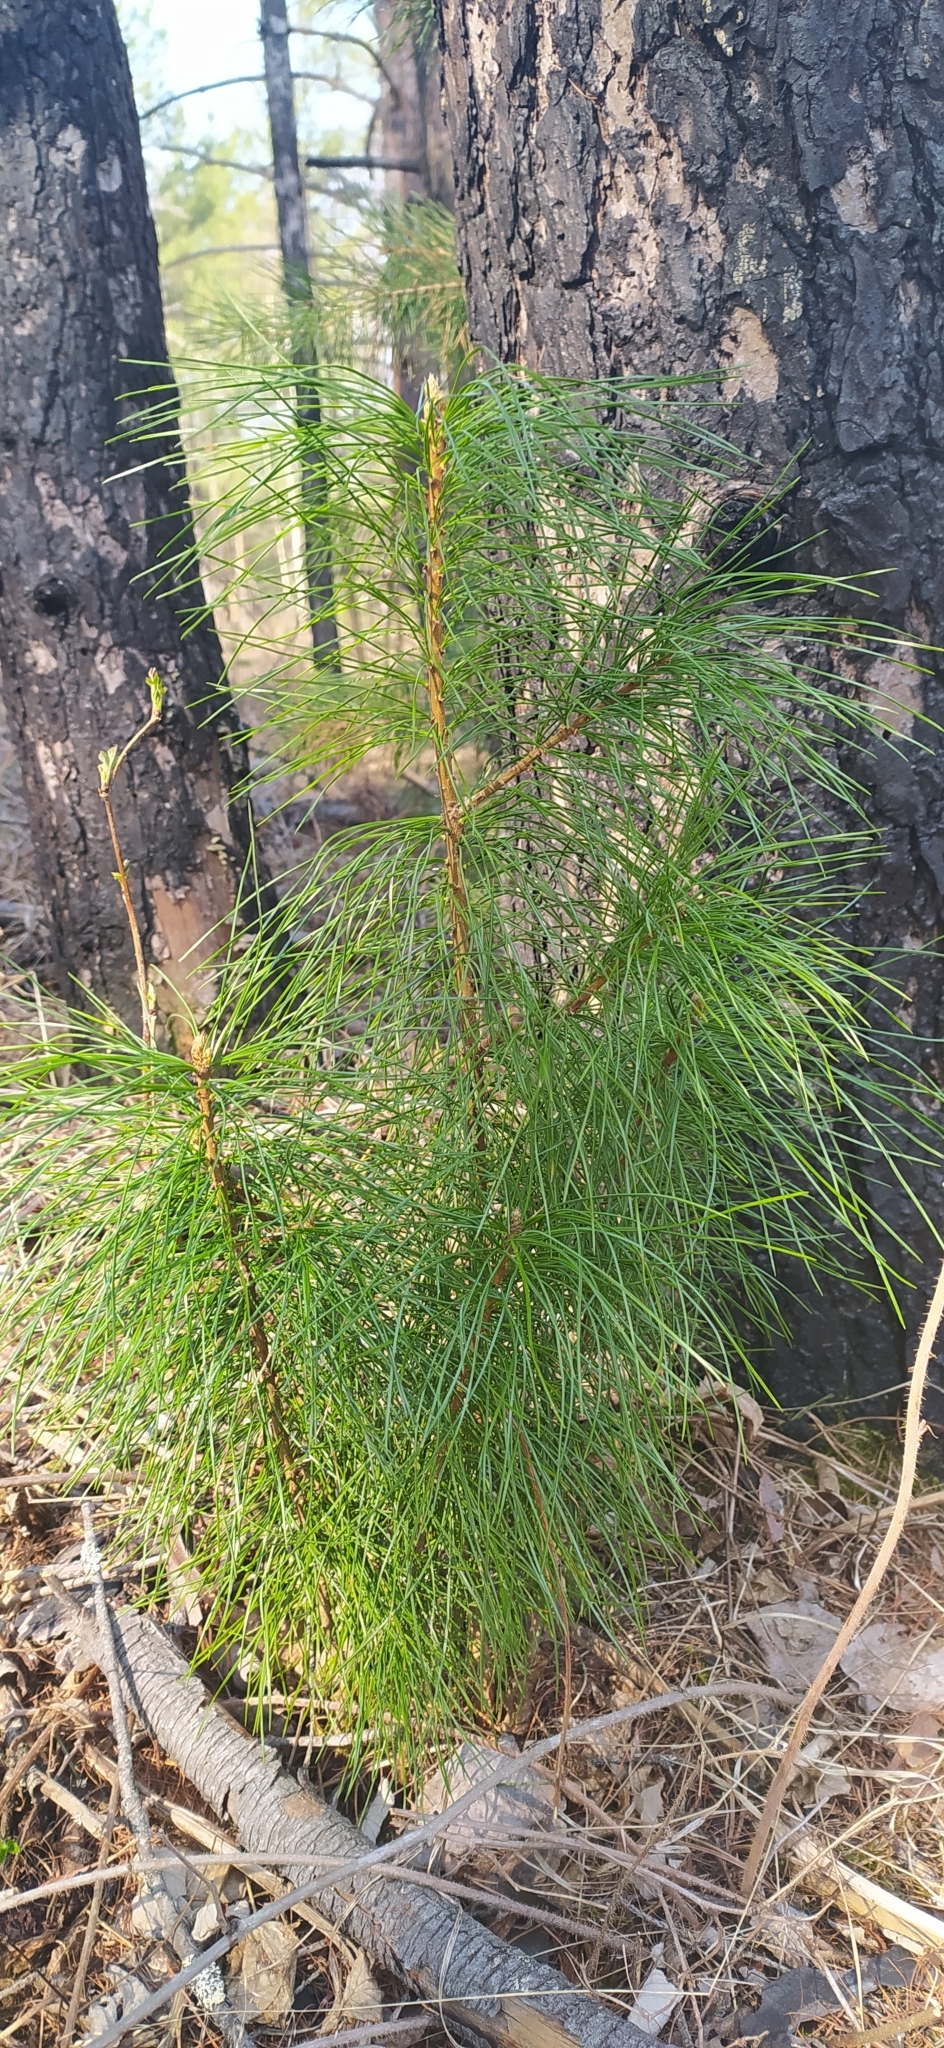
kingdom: Plantae
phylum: Tracheophyta
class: Pinopsida
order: Pinales
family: Pinaceae
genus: Pinus
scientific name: Pinus sibirica
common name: Siberian pine
